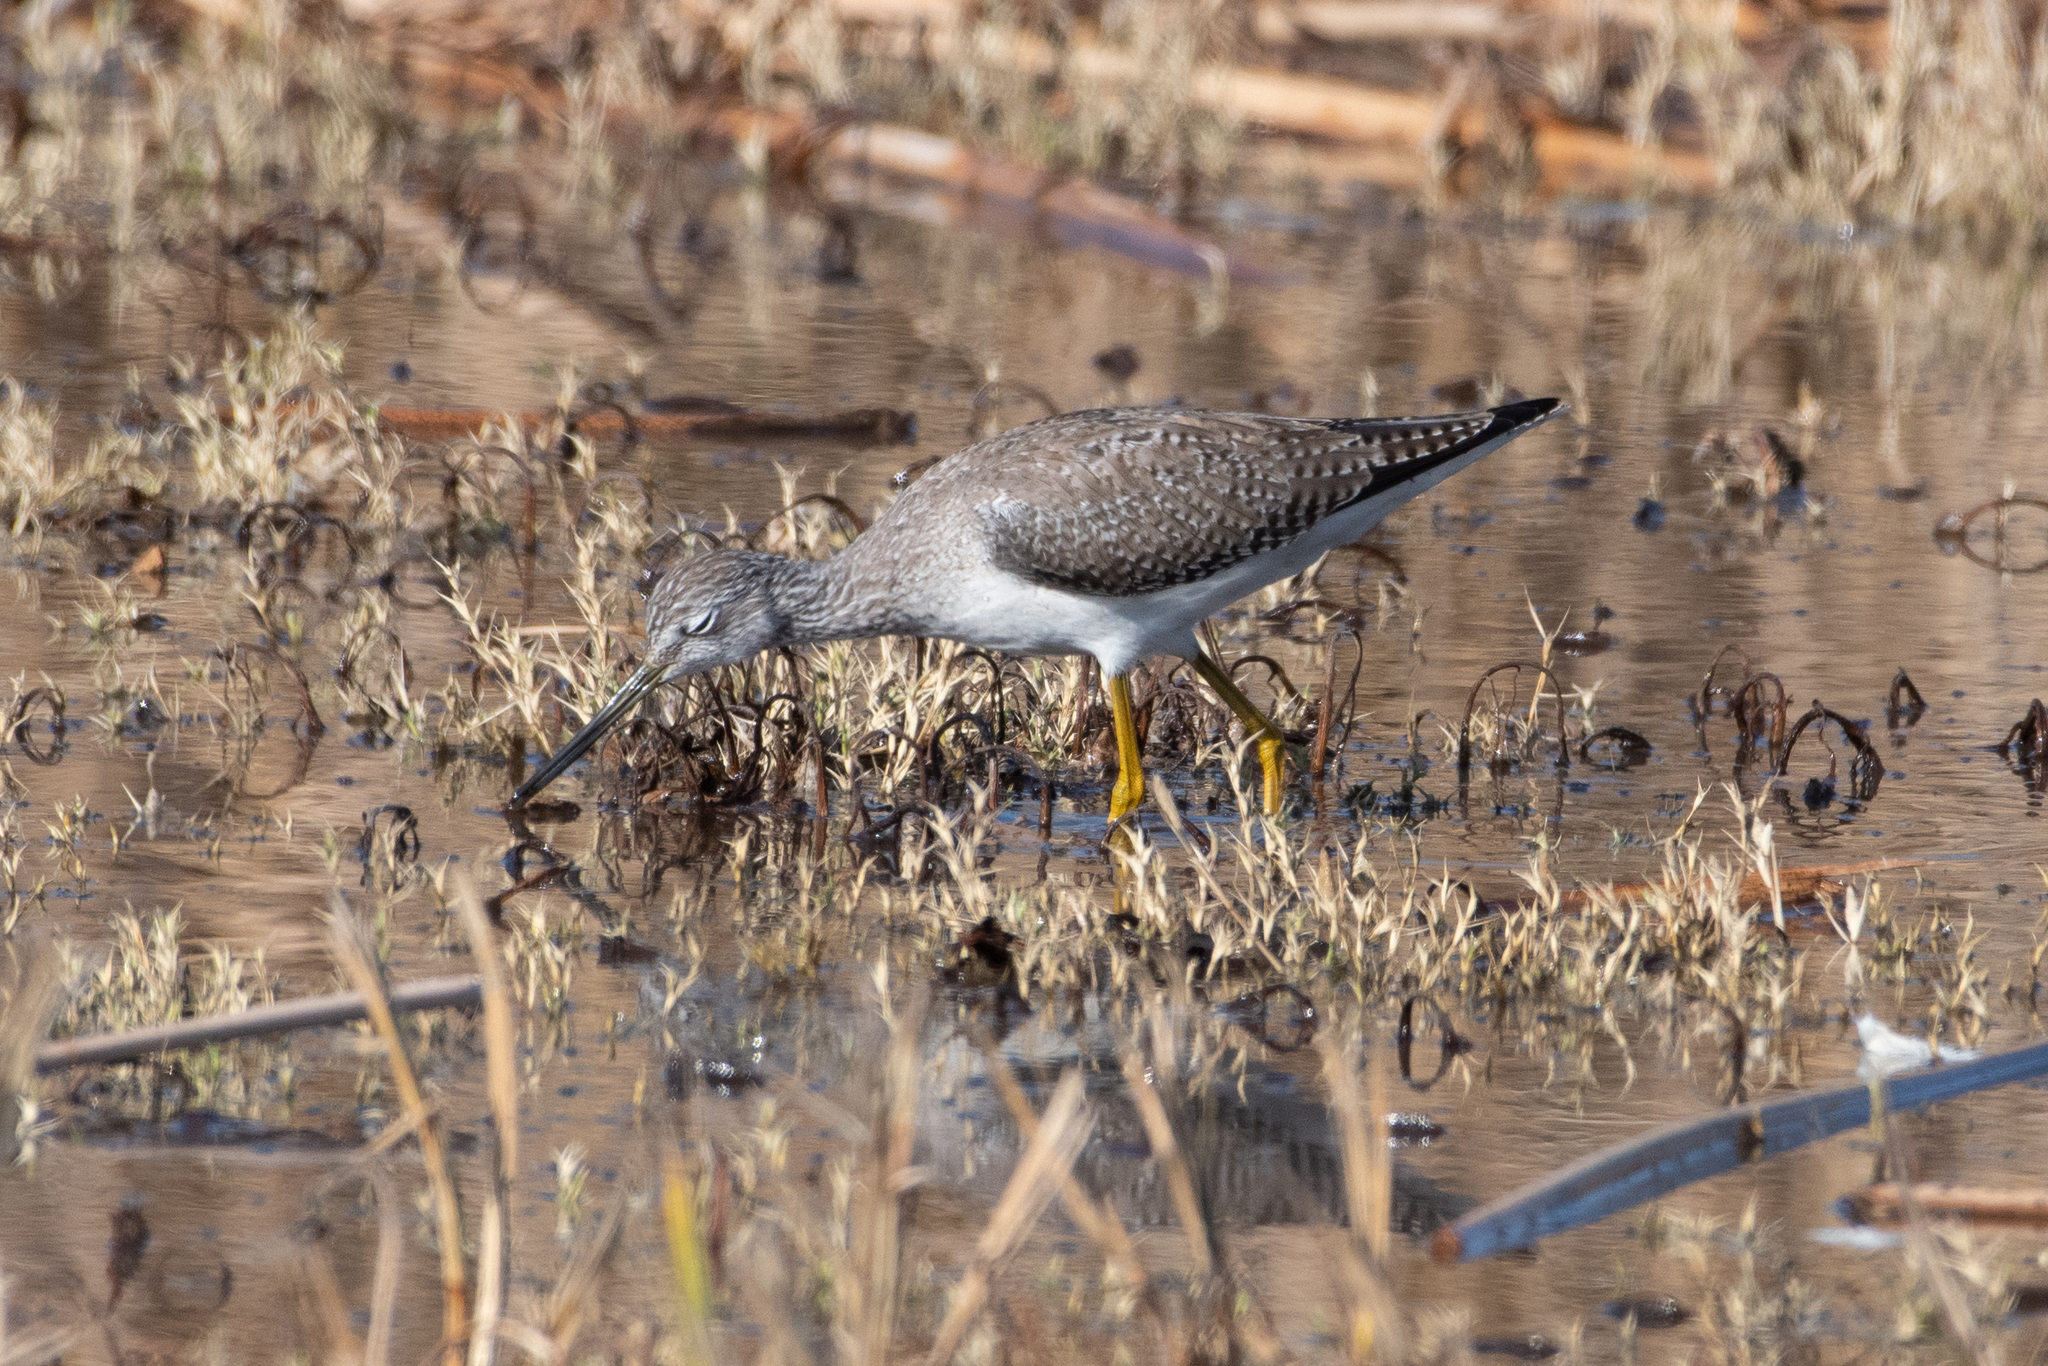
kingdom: Animalia
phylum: Chordata
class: Aves
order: Charadriiformes
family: Scolopacidae
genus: Tringa
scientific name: Tringa melanoleuca
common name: Greater yellowlegs
